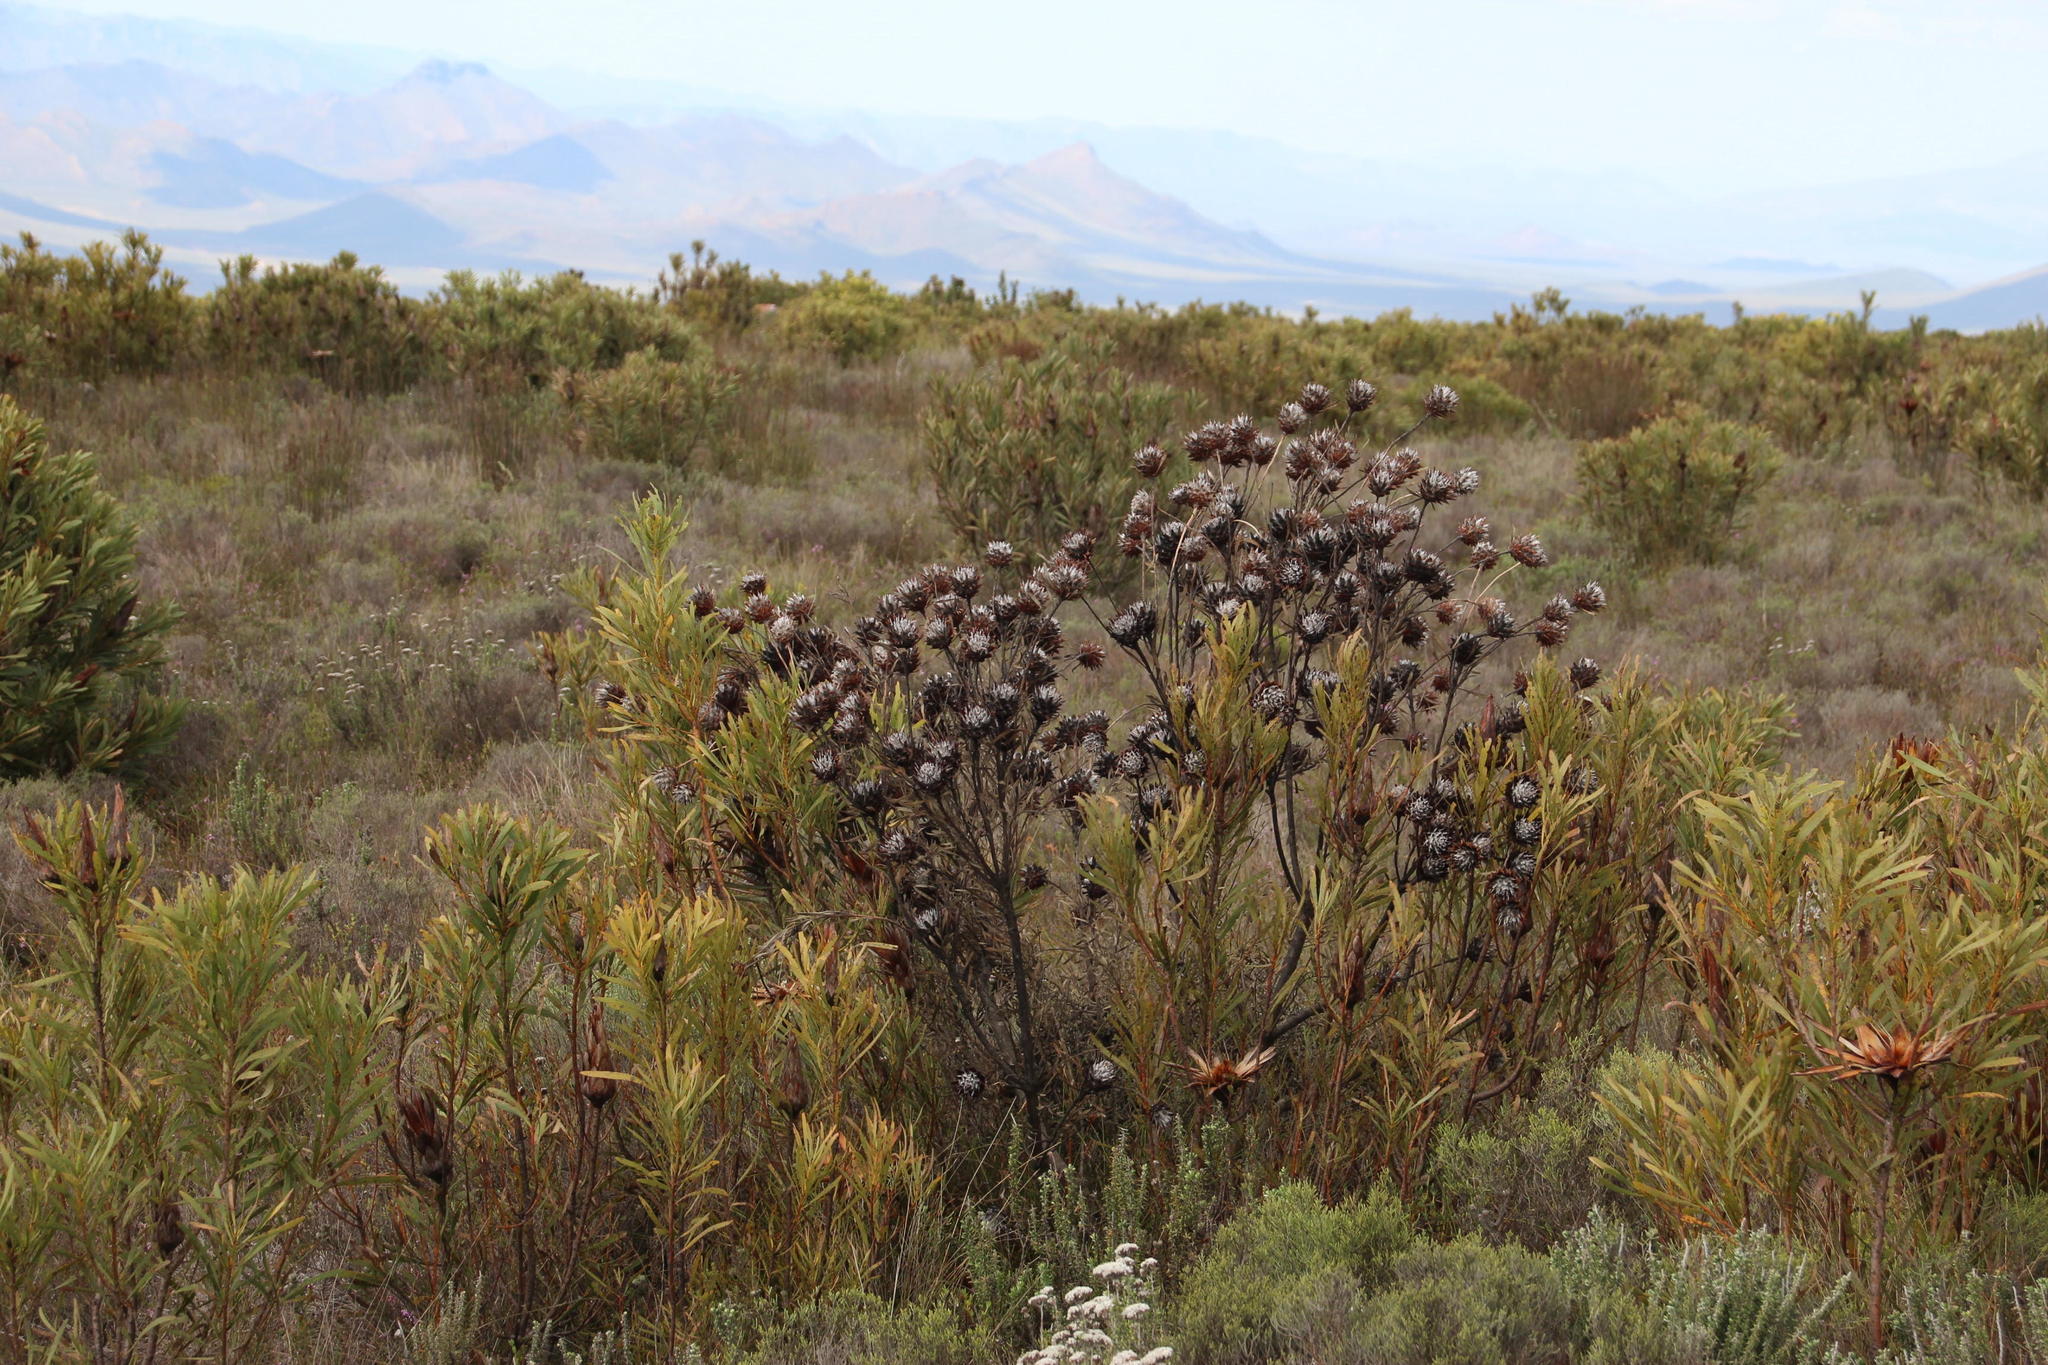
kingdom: Plantae
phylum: Tracheophyta
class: Magnoliopsida
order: Proteales
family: Proteaceae
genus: Leucadendron
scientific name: Leucadendron rubrum
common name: Spinning top
